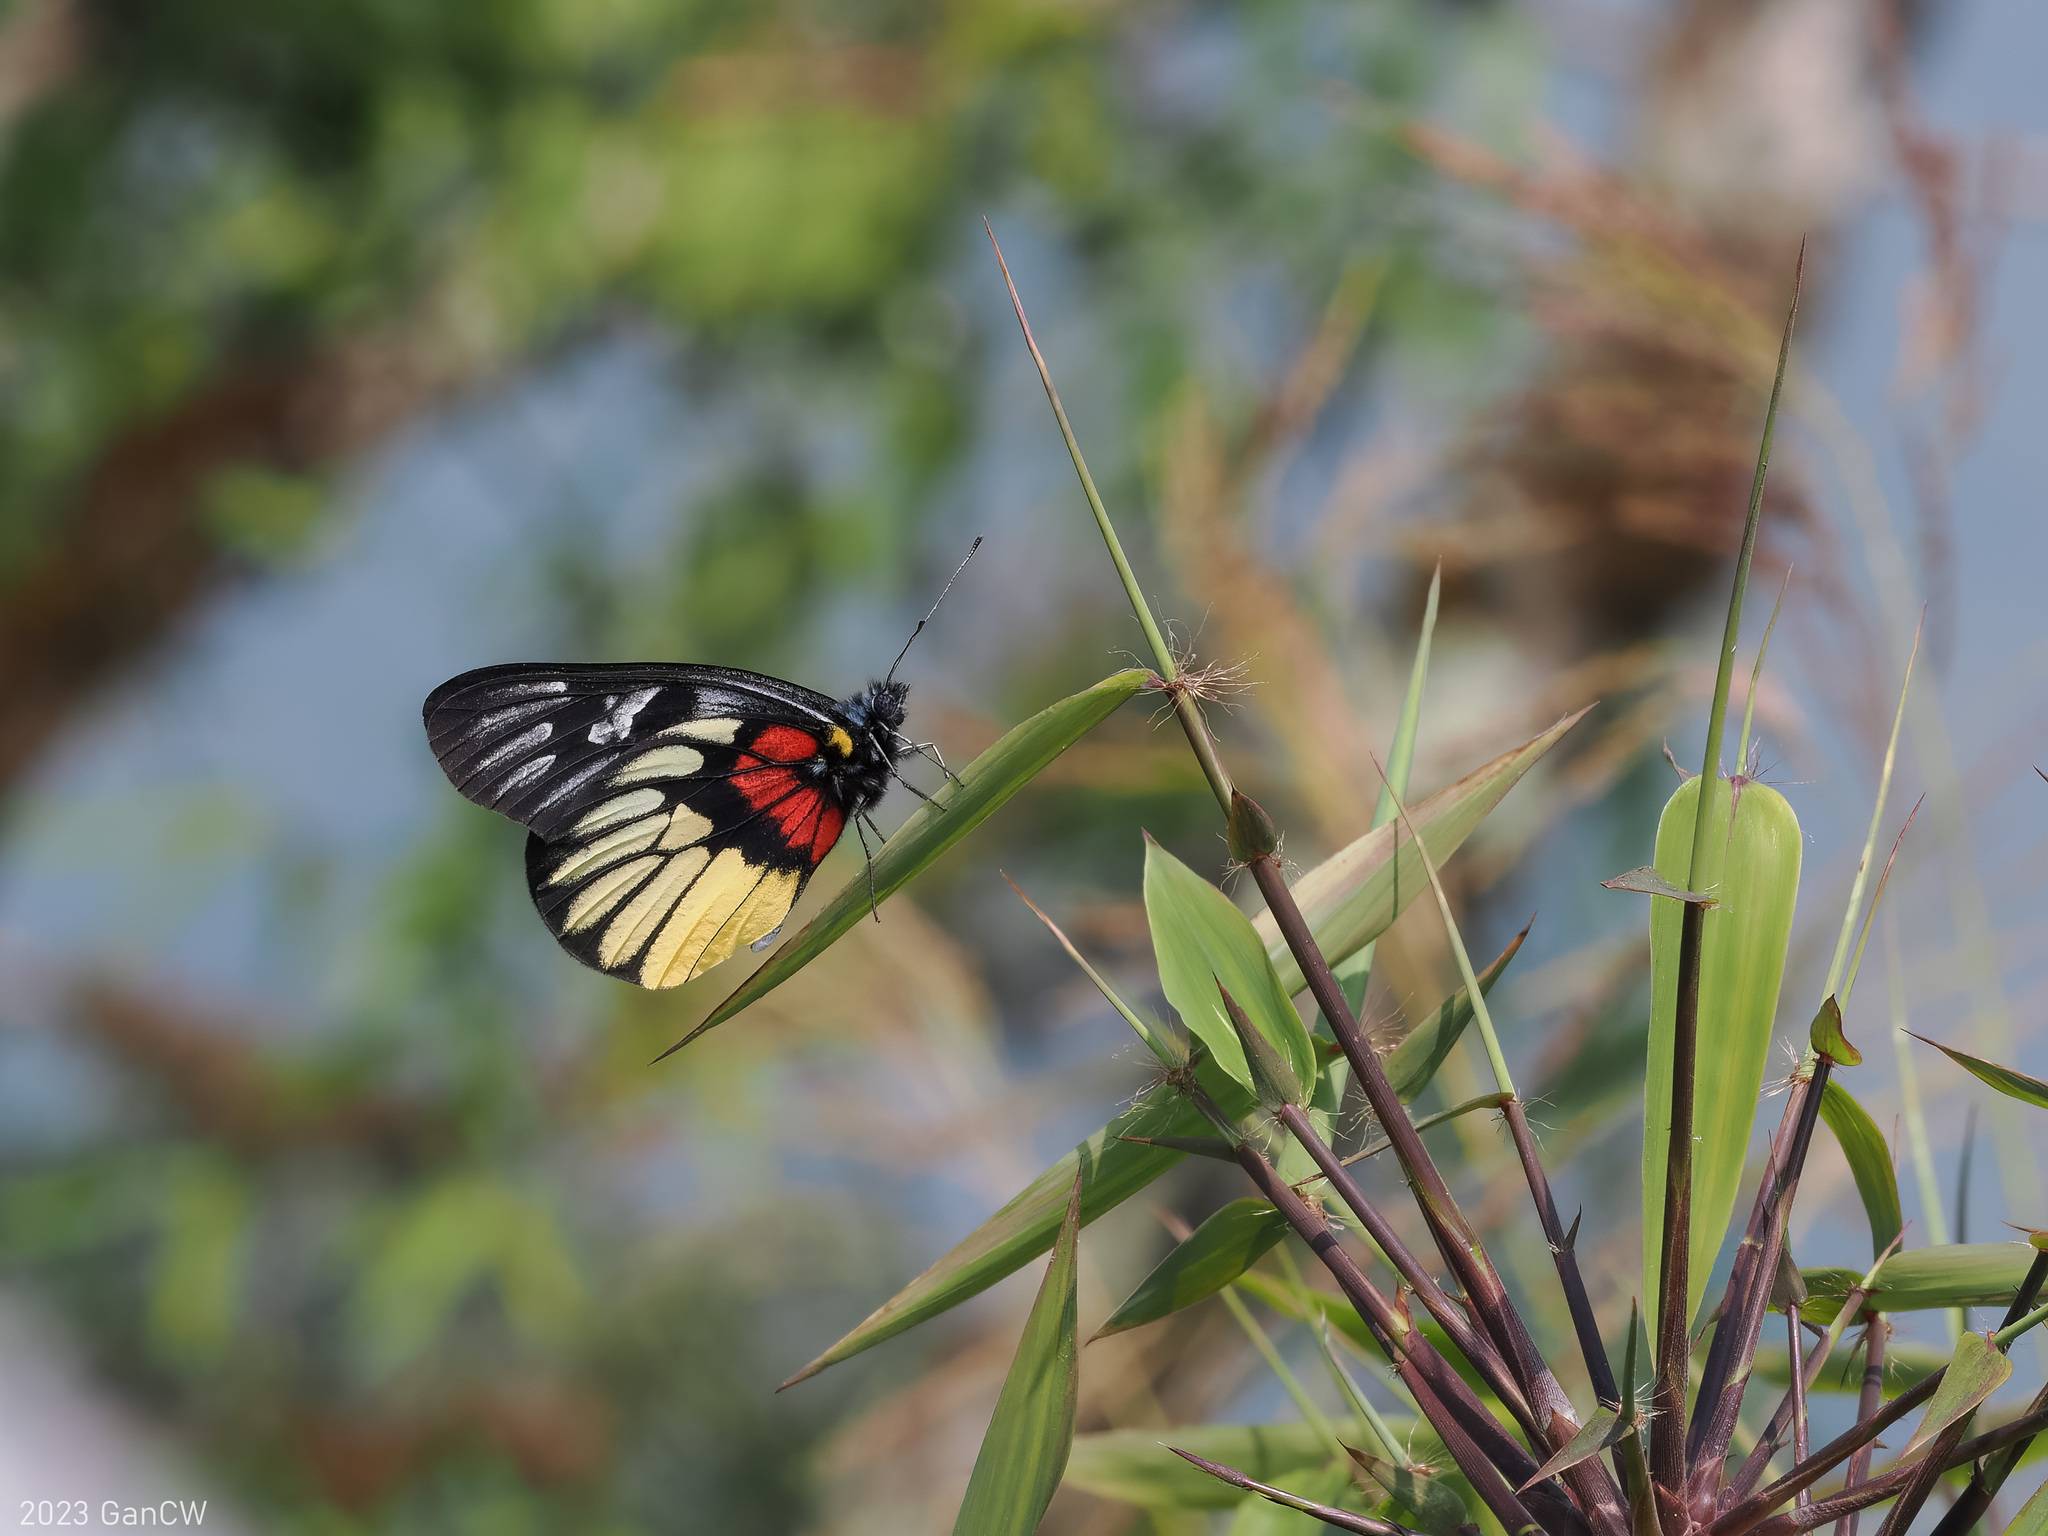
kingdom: Animalia
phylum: Arthropoda
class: Insecta
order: Lepidoptera
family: Pieridae
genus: Delias
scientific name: Delias acalis
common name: Red-breast jezebel
